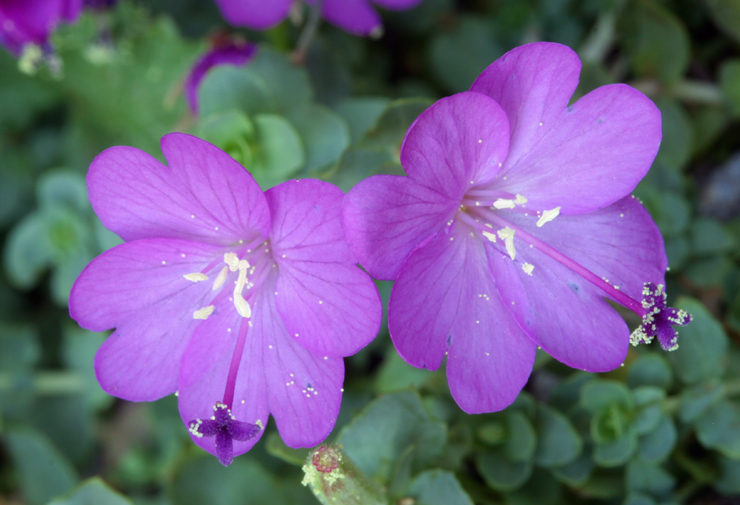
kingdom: Plantae
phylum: Tracheophyta
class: Magnoliopsida
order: Myrtales
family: Onagraceae
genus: Epilobium
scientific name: Epilobium obcordatum
